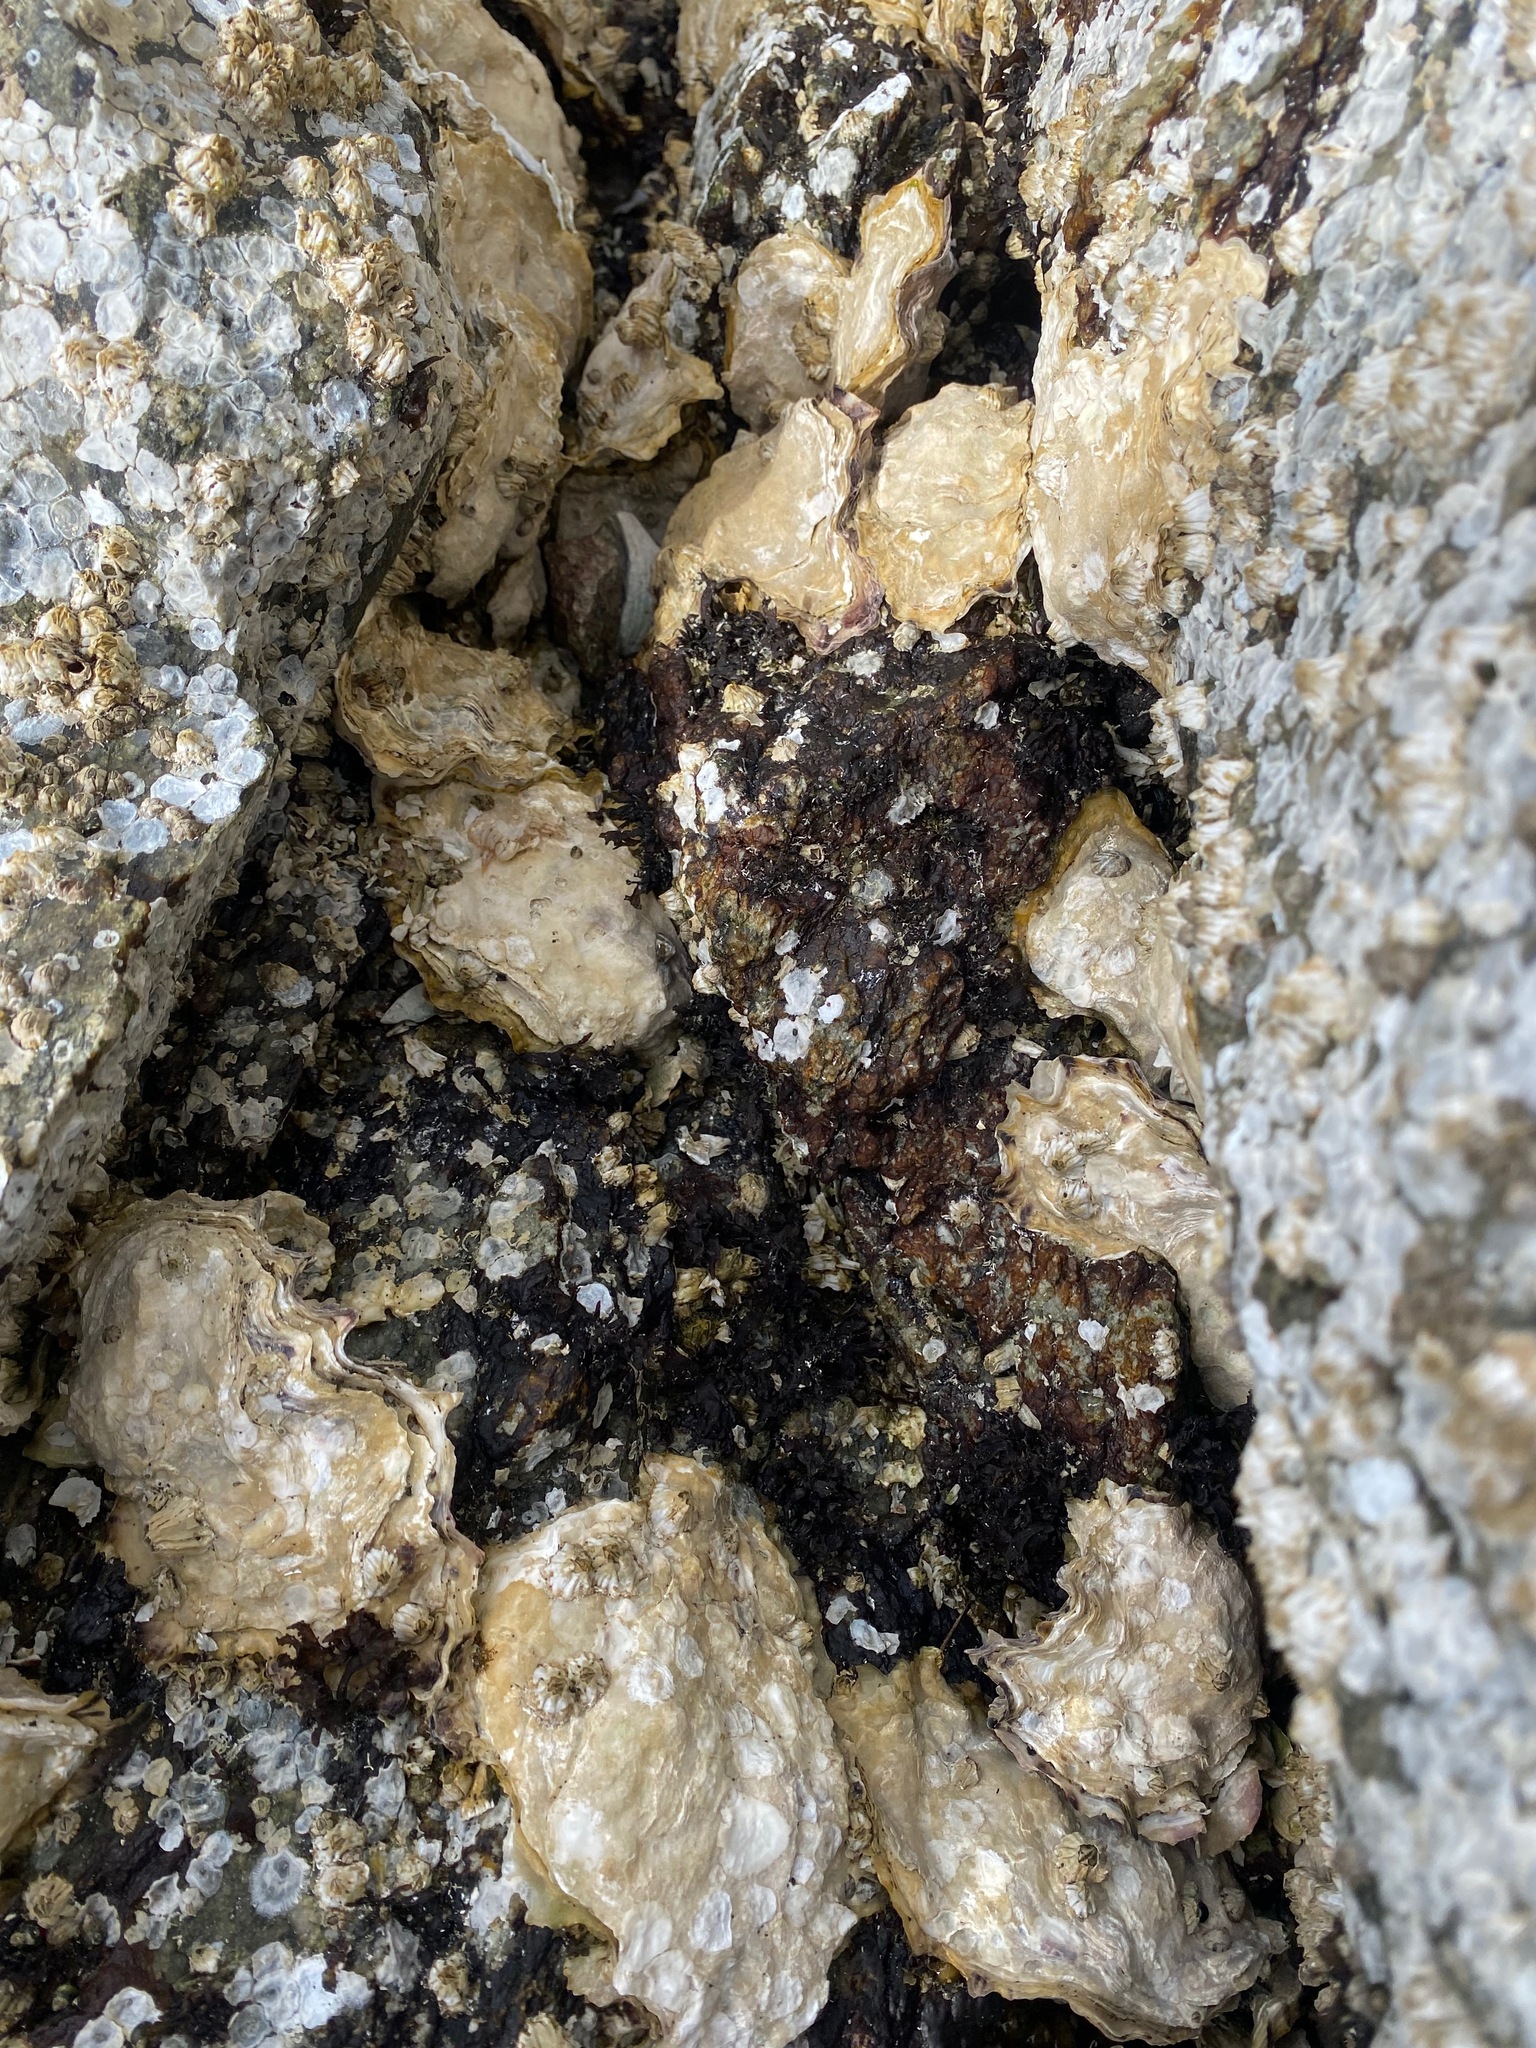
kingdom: Animalia
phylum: Mollusca
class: Bivalvia
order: Ostreida
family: Ostreidae
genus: Magallana
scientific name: Magallana gigas
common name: Pacific oyster
